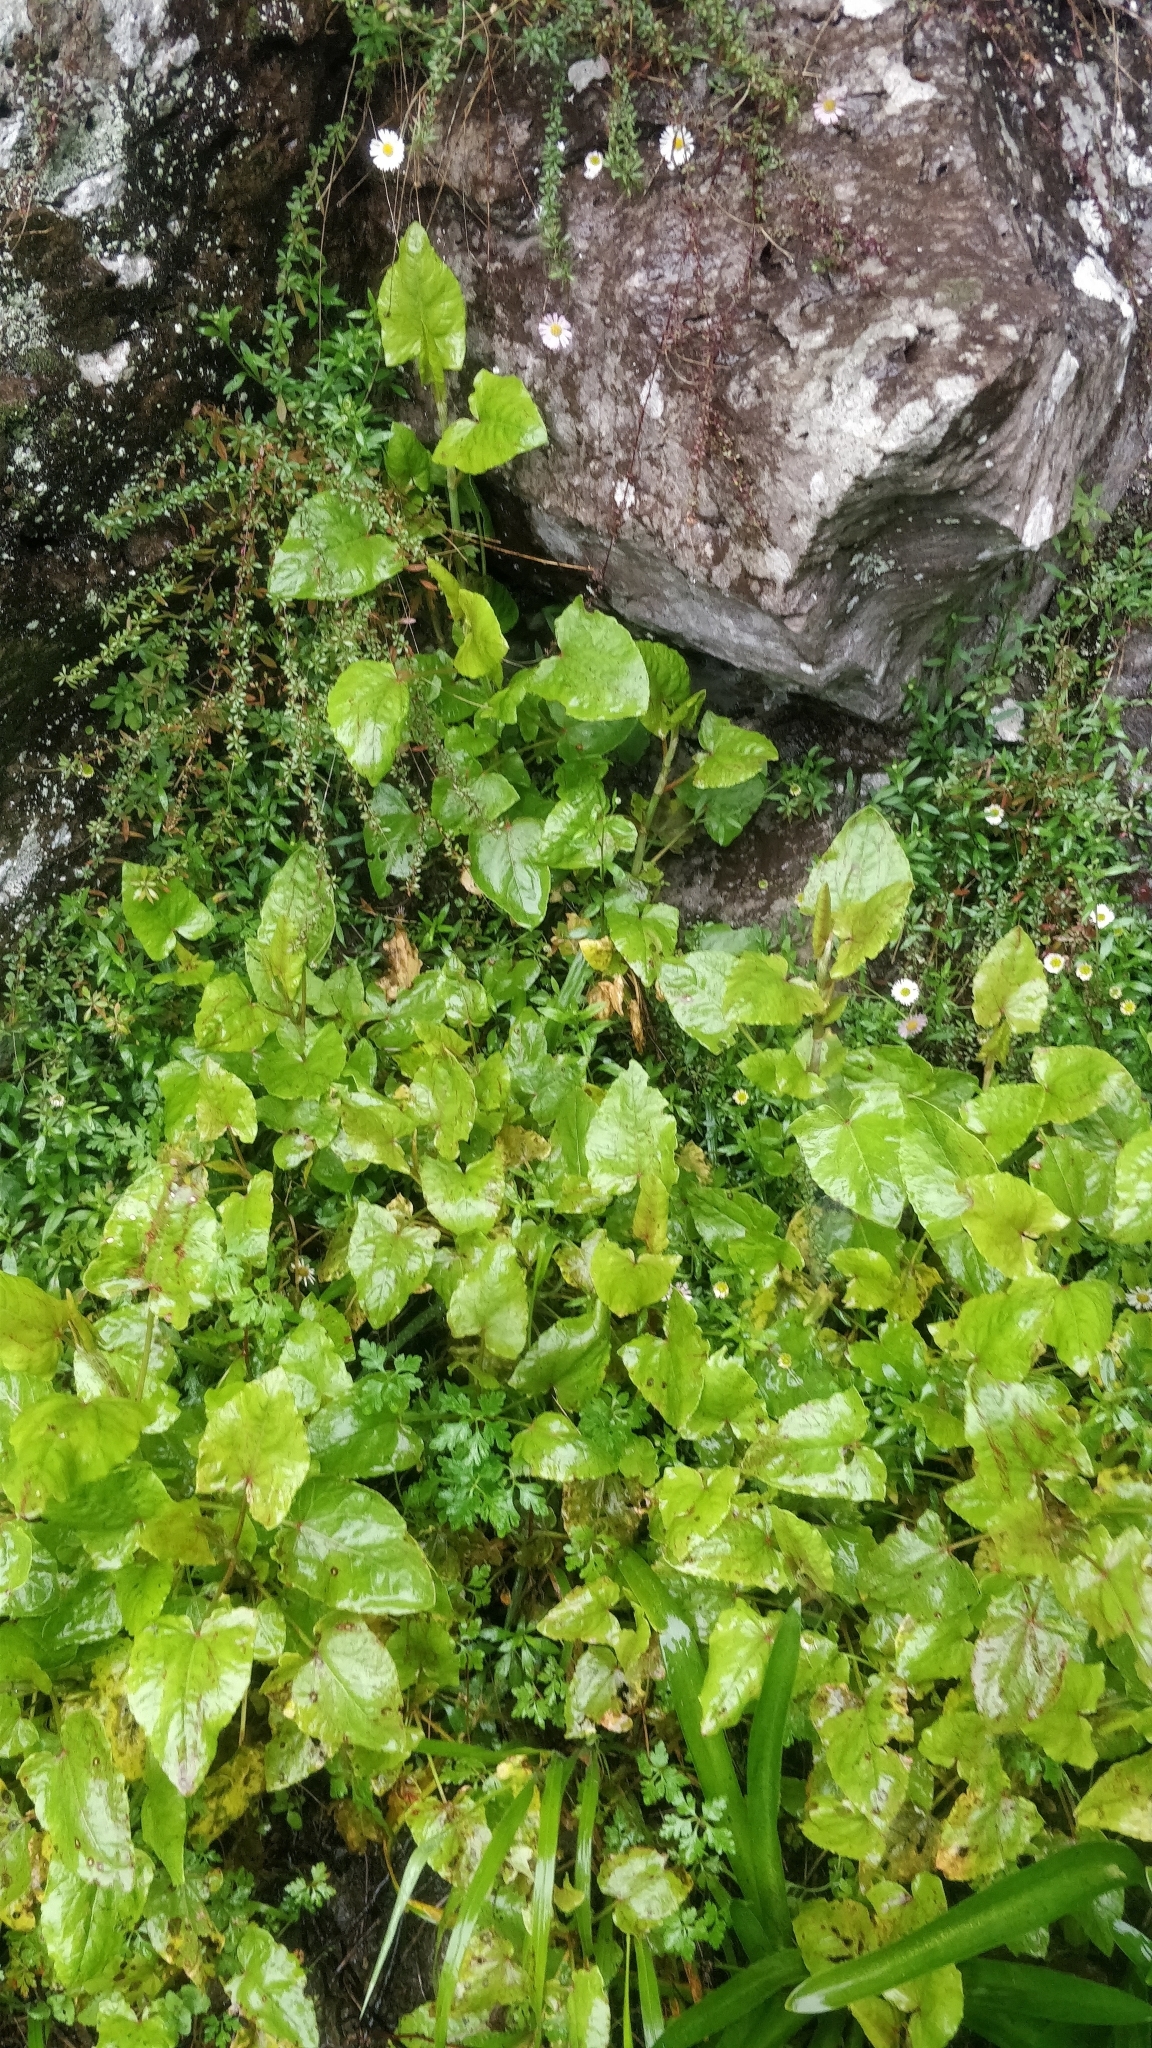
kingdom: Plantae
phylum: Tracheophyta
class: Magnoliopsida
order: Caryophyllales
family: Polygonaceae
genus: Rumex
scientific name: Rumex maderensis
